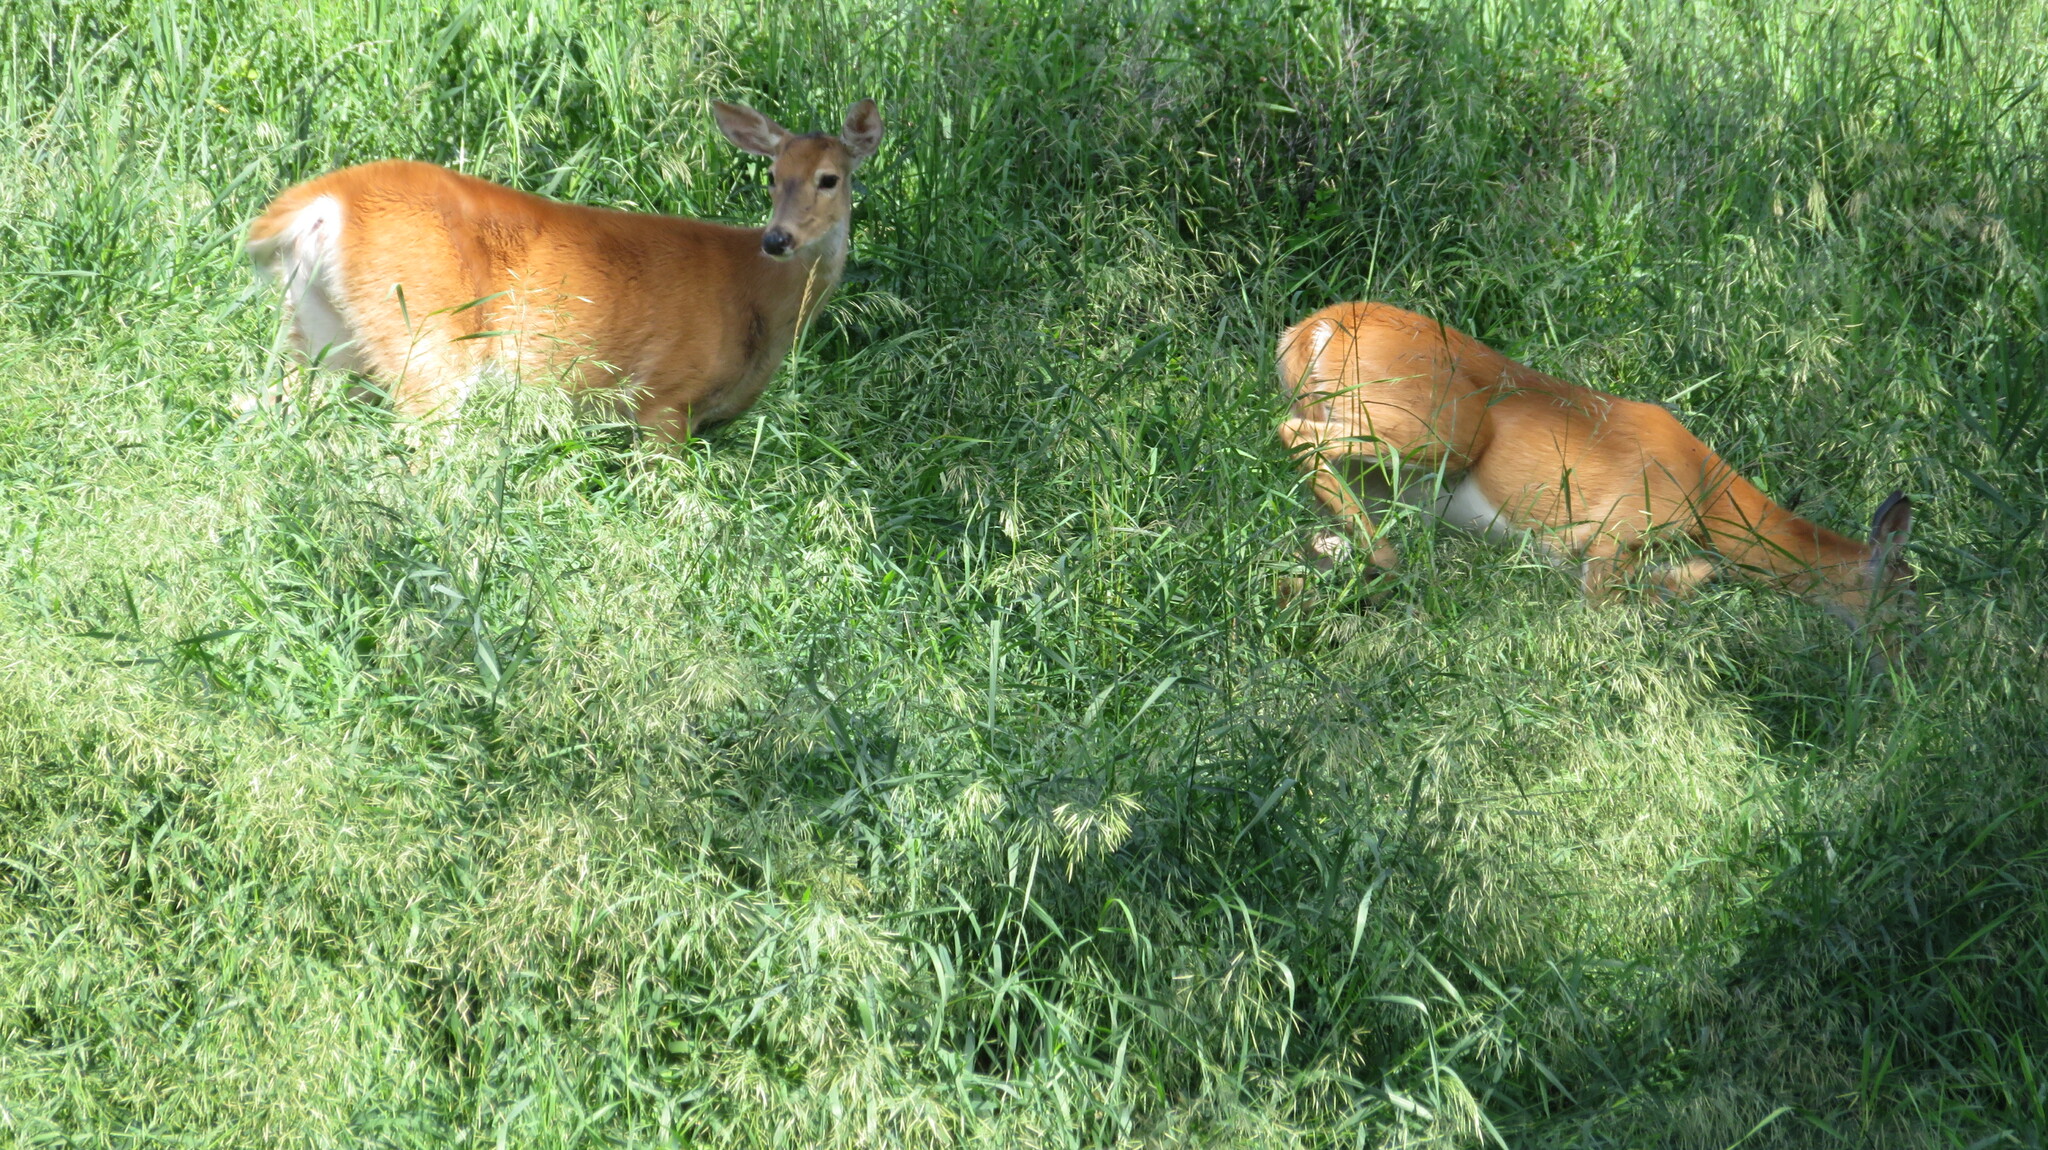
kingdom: Animalia
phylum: Chordata
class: Mammalia
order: Artiodactyla
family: Cervidae
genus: Odocoileus
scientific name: Odocoileus virginianus
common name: White-tailed deer
